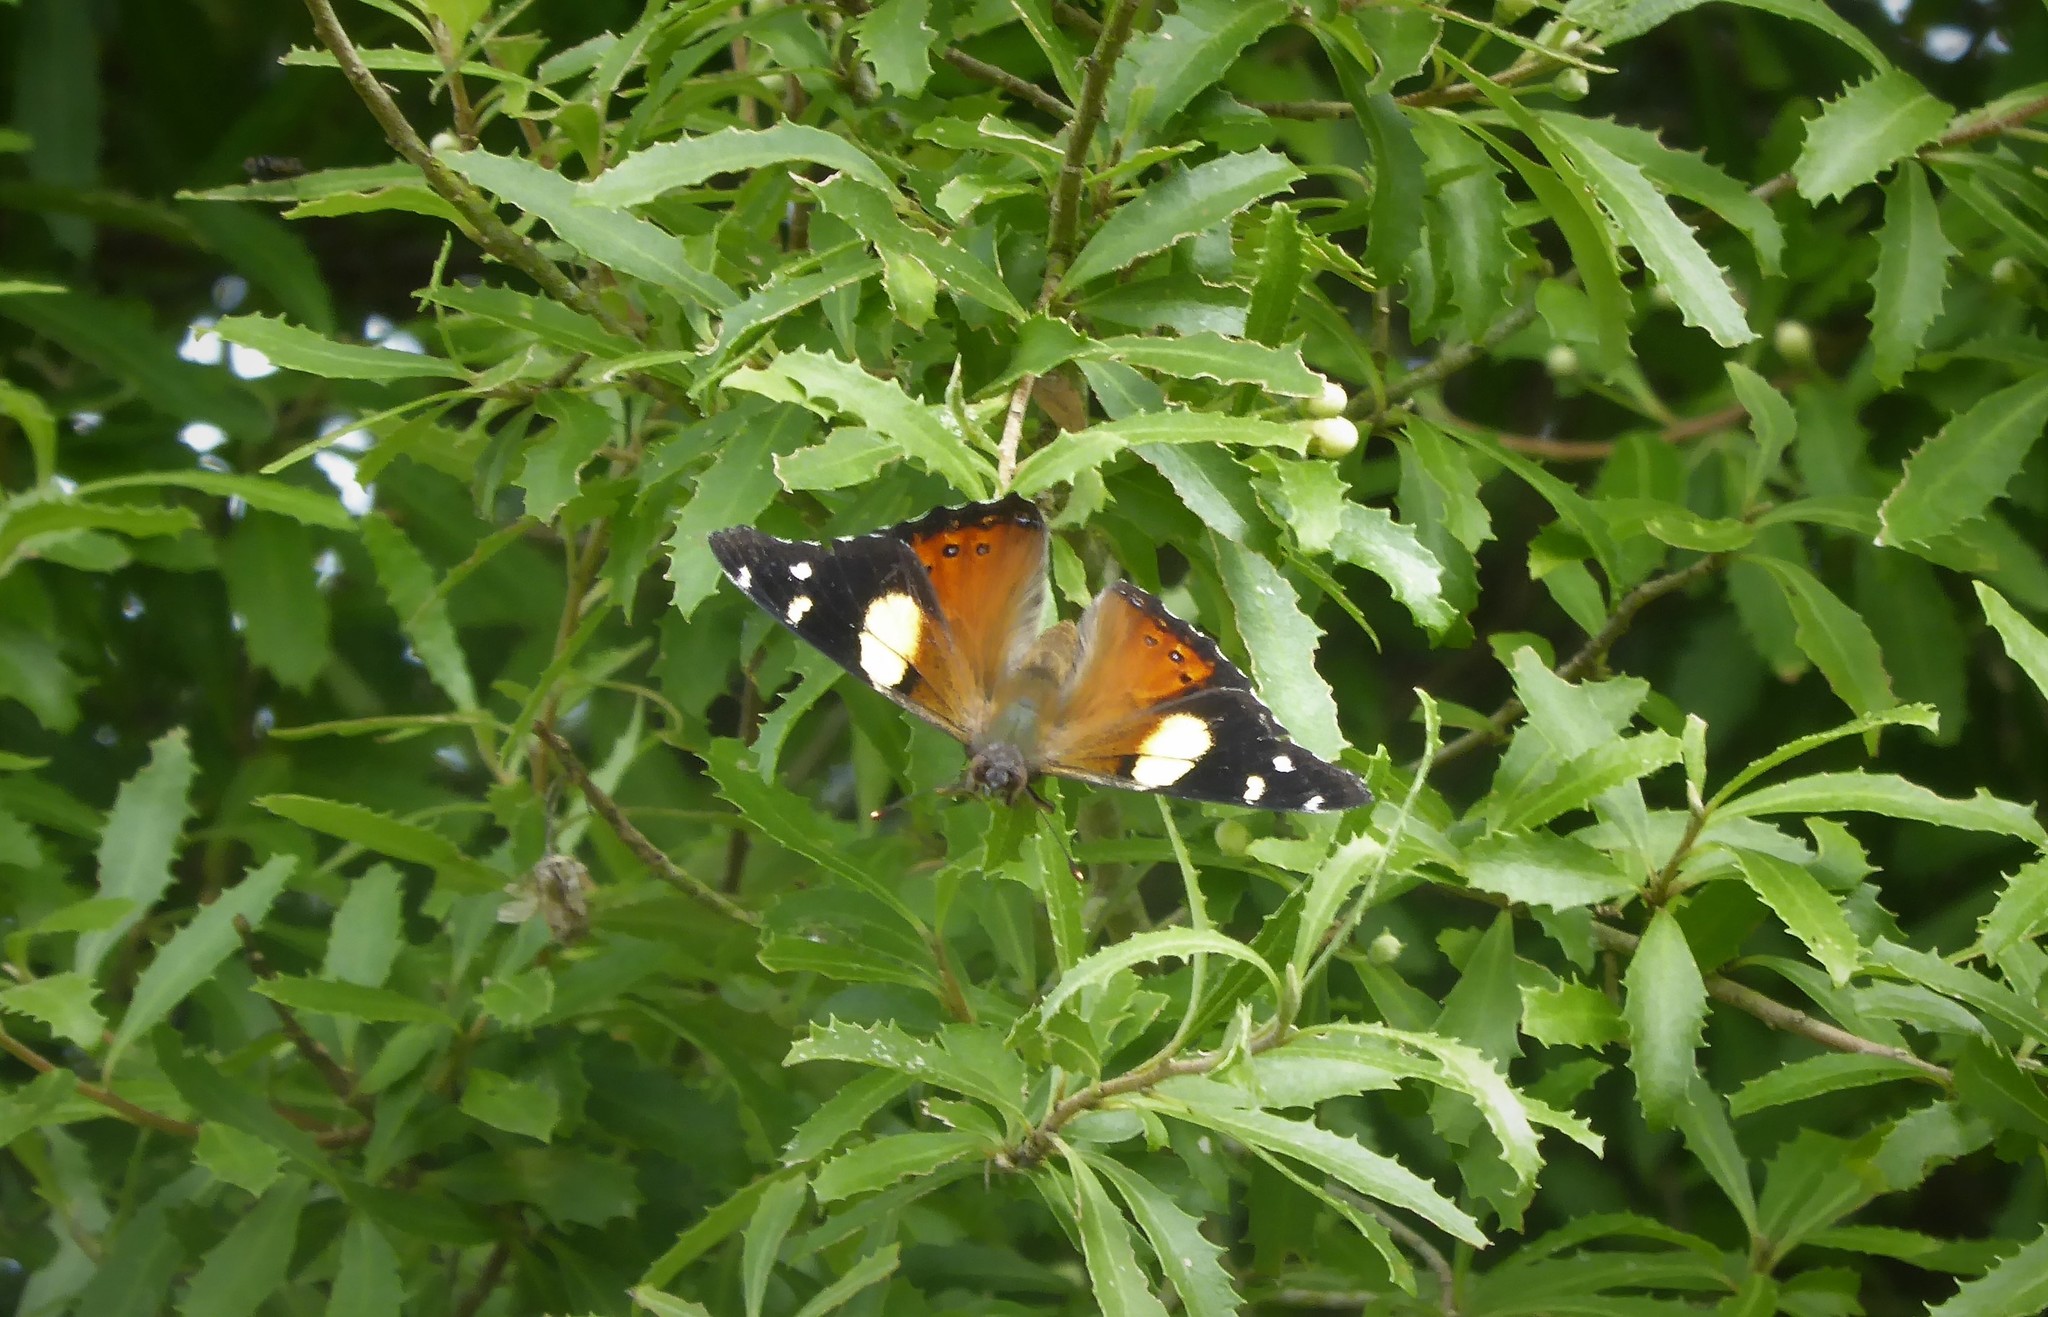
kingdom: Animalia
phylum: Arthropoda
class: Insecta
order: Lepidoptera
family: Nymphalidae
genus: Vanessa
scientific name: Vanessa itea
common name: Yellow admiral
